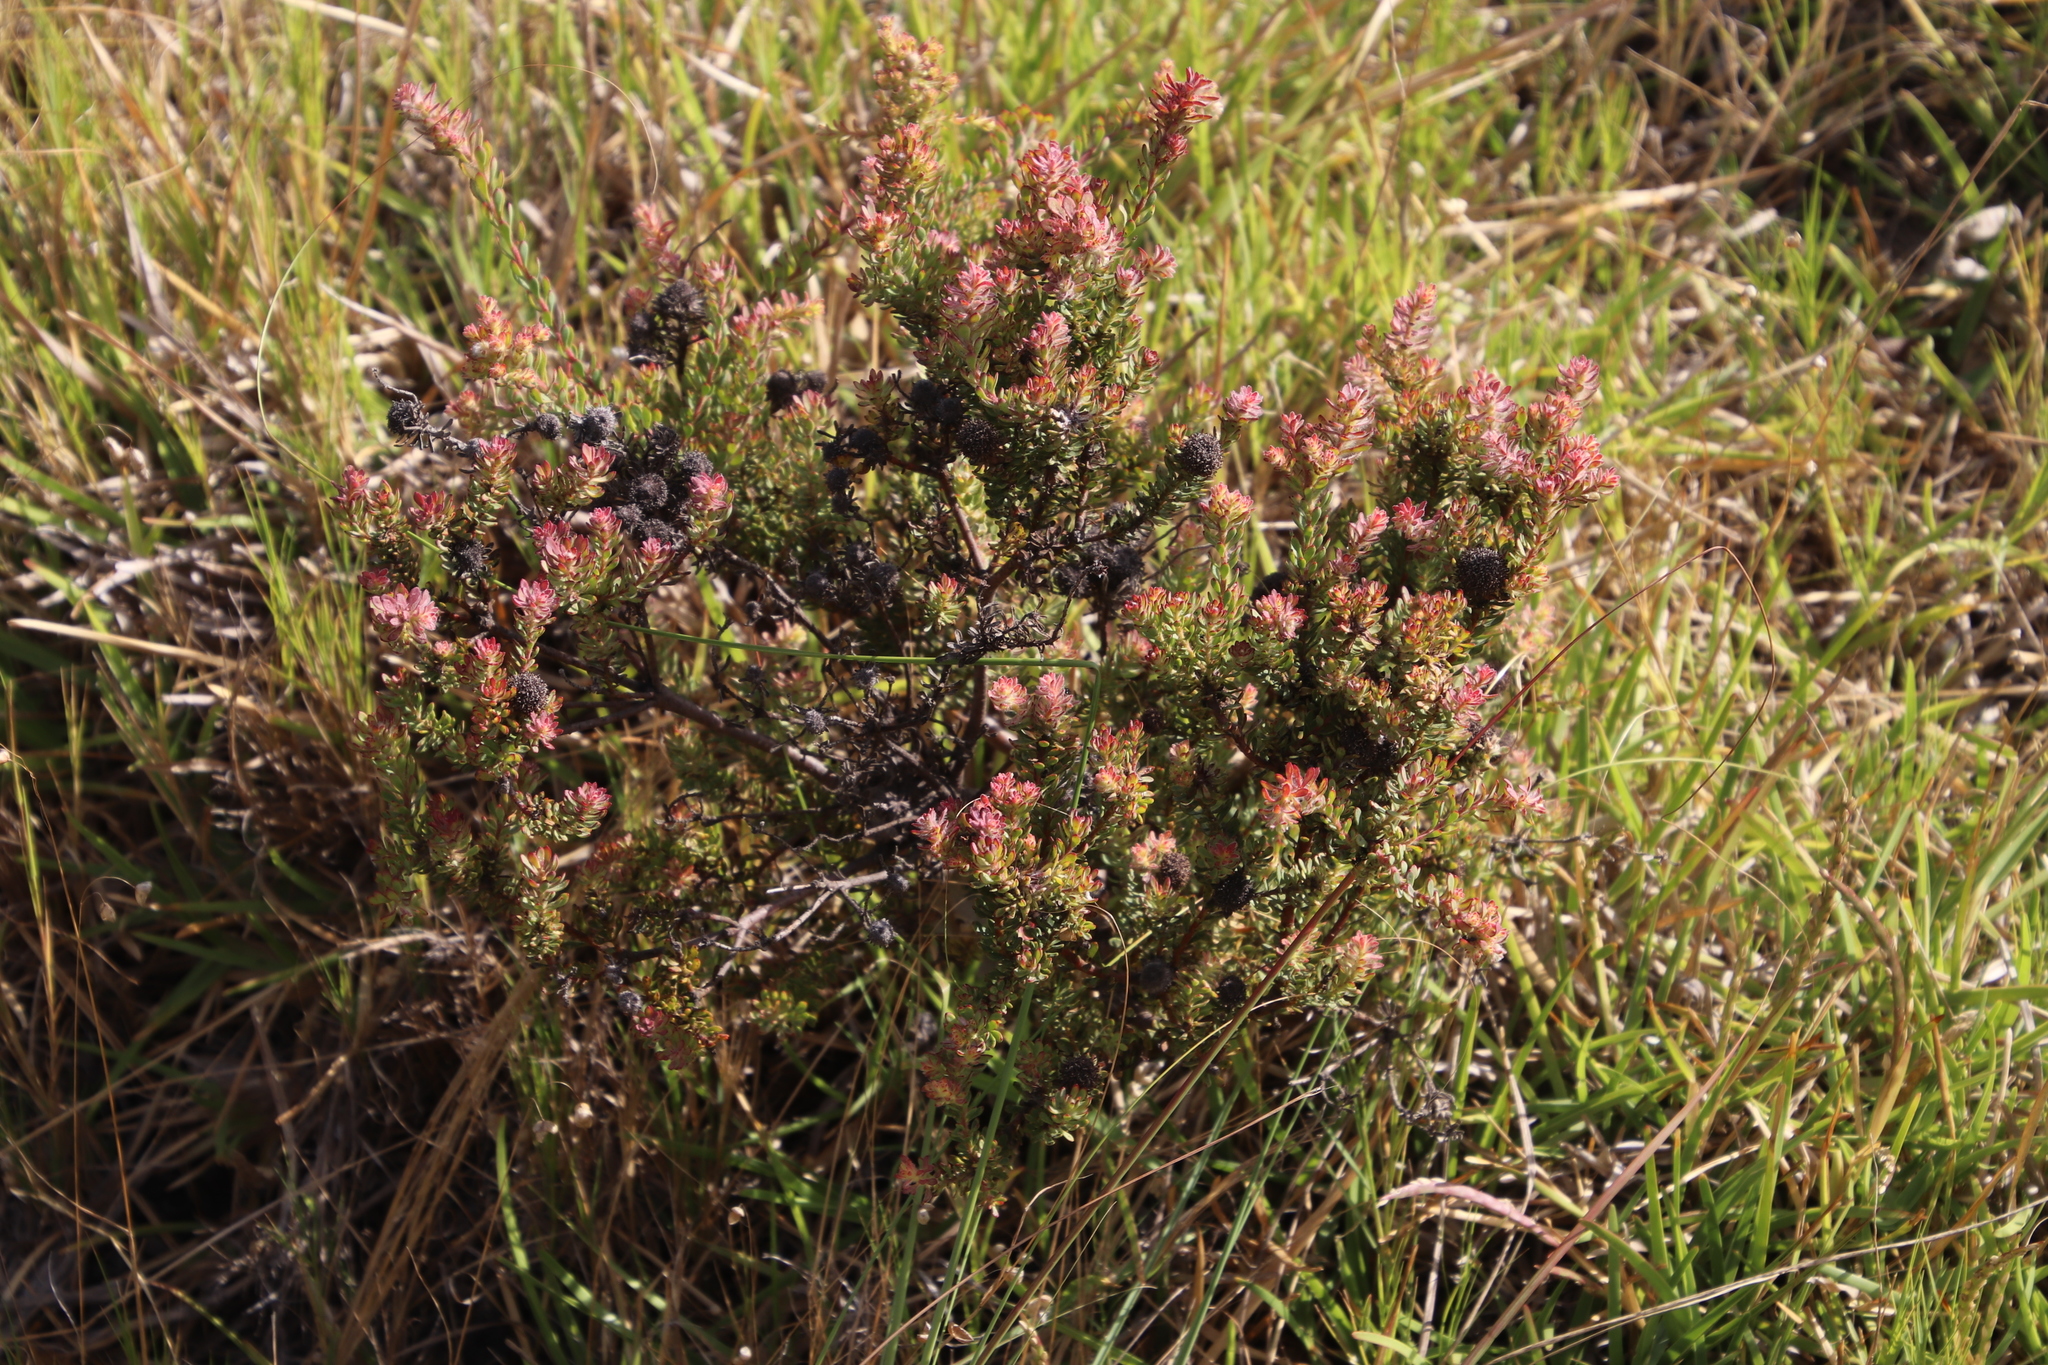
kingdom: Plantae
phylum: Tracheophyta
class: Magnoliopsida
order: Proteales
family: Proteaceae
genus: Leucadendron
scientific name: Leucadendron levisanus
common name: Cape flats conebush
